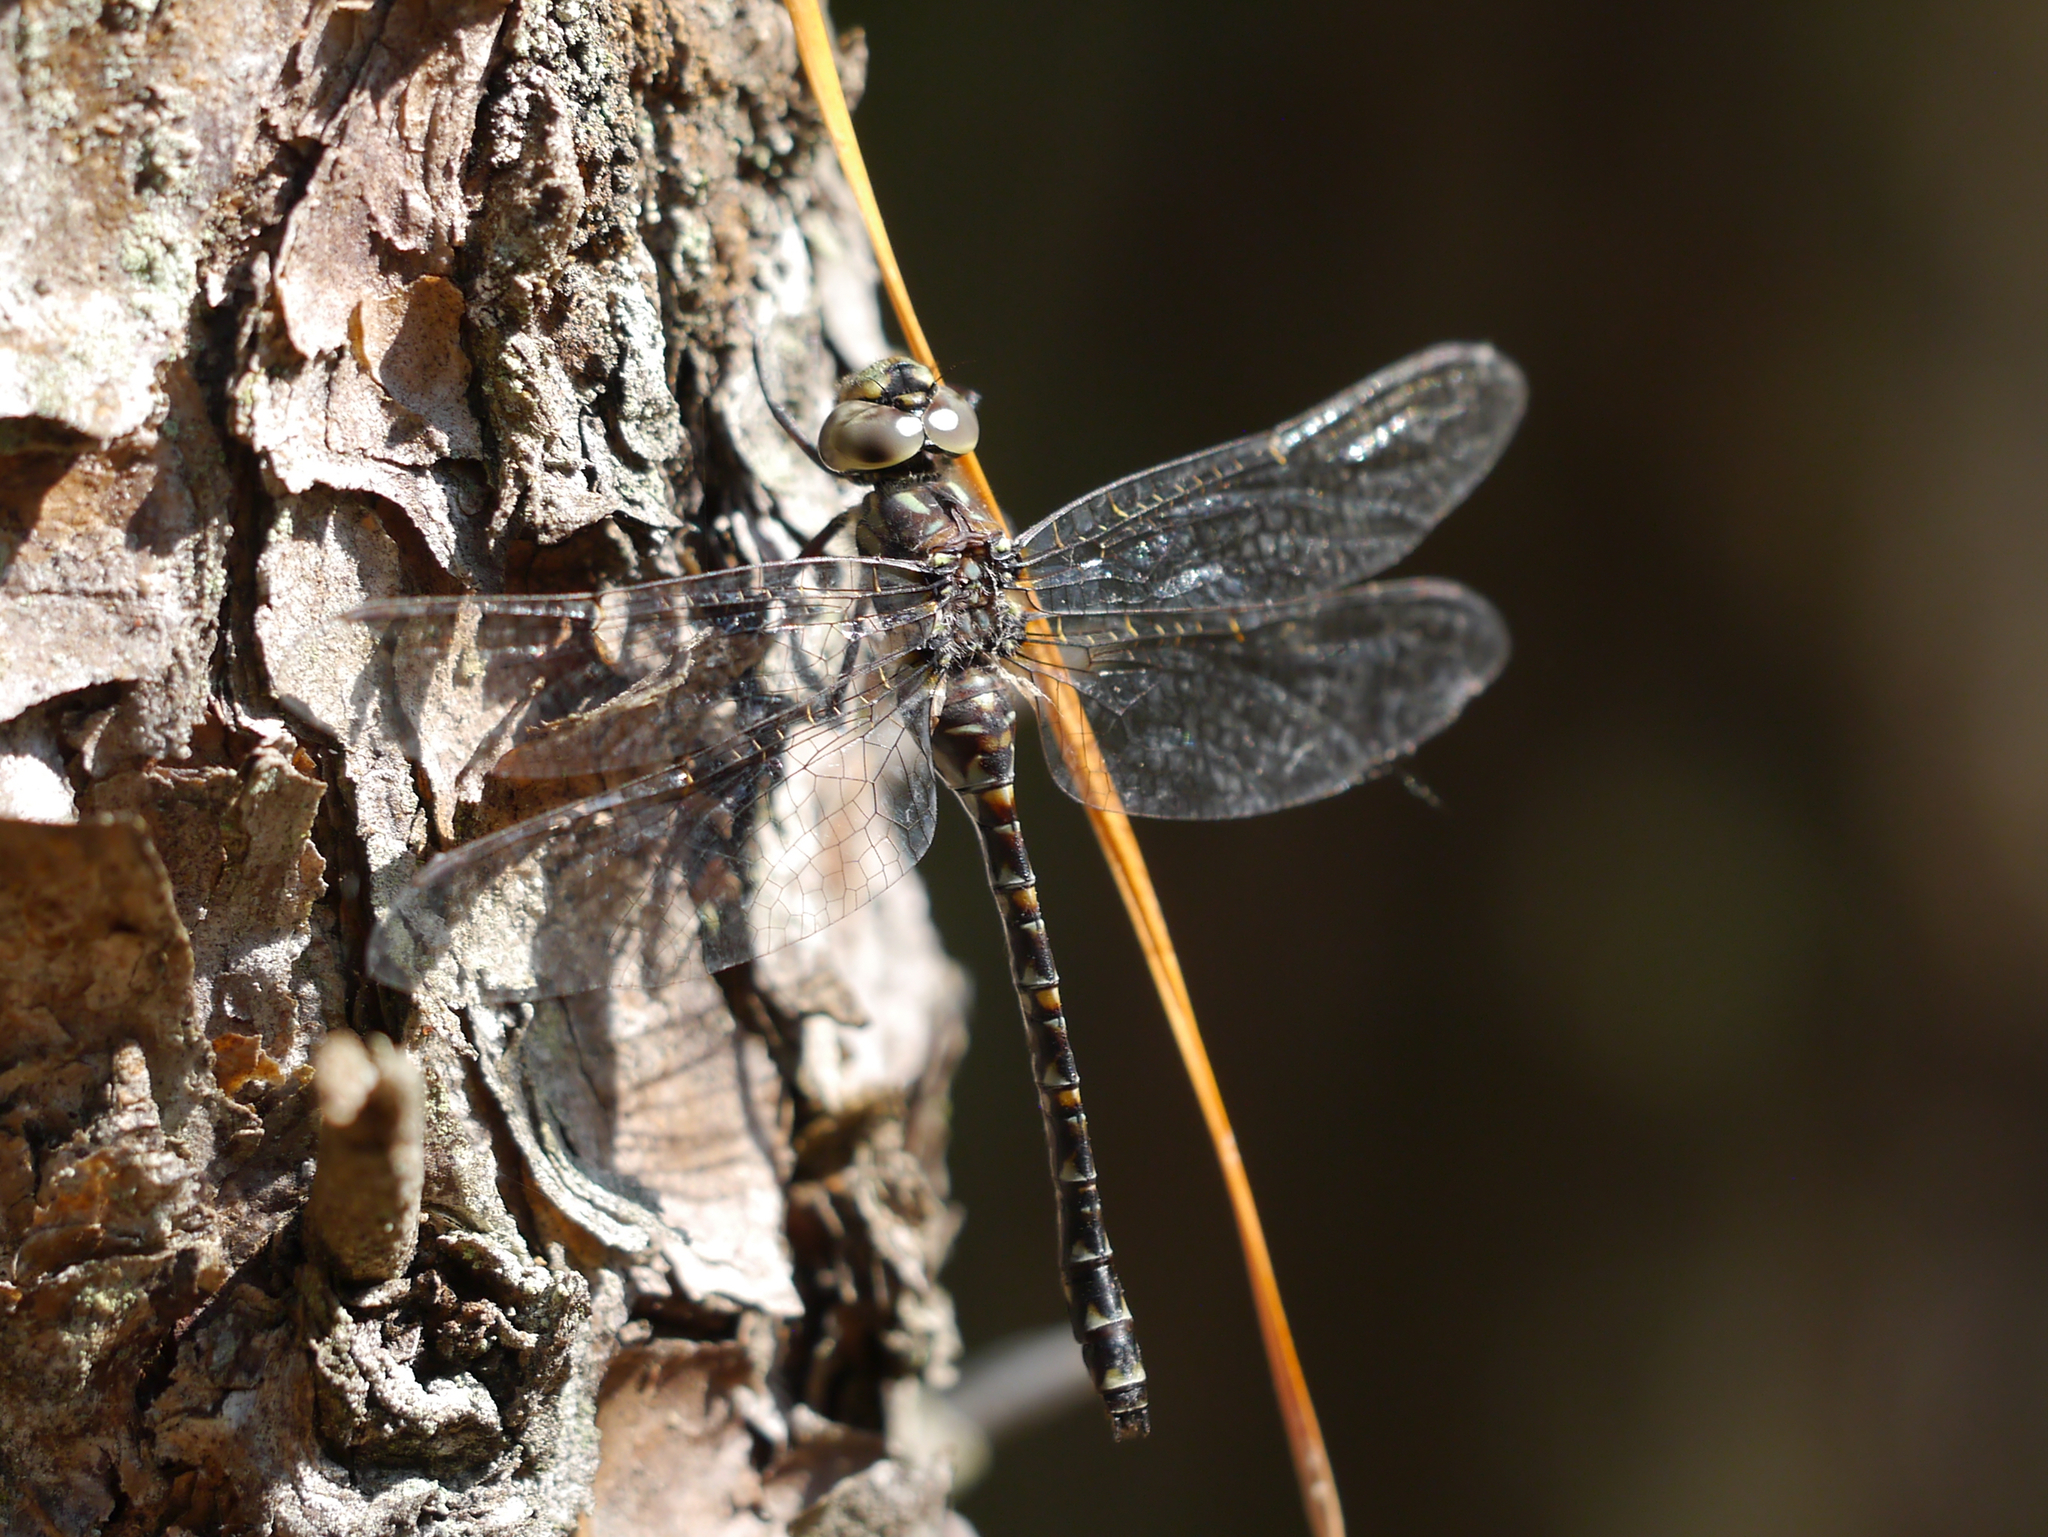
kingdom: Animalia
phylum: Arthropoda
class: Insecta
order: Odonata
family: Aeshnidae
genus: Gomphaeschna
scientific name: Gomphaeschna furcillata
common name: Harlequin darner
